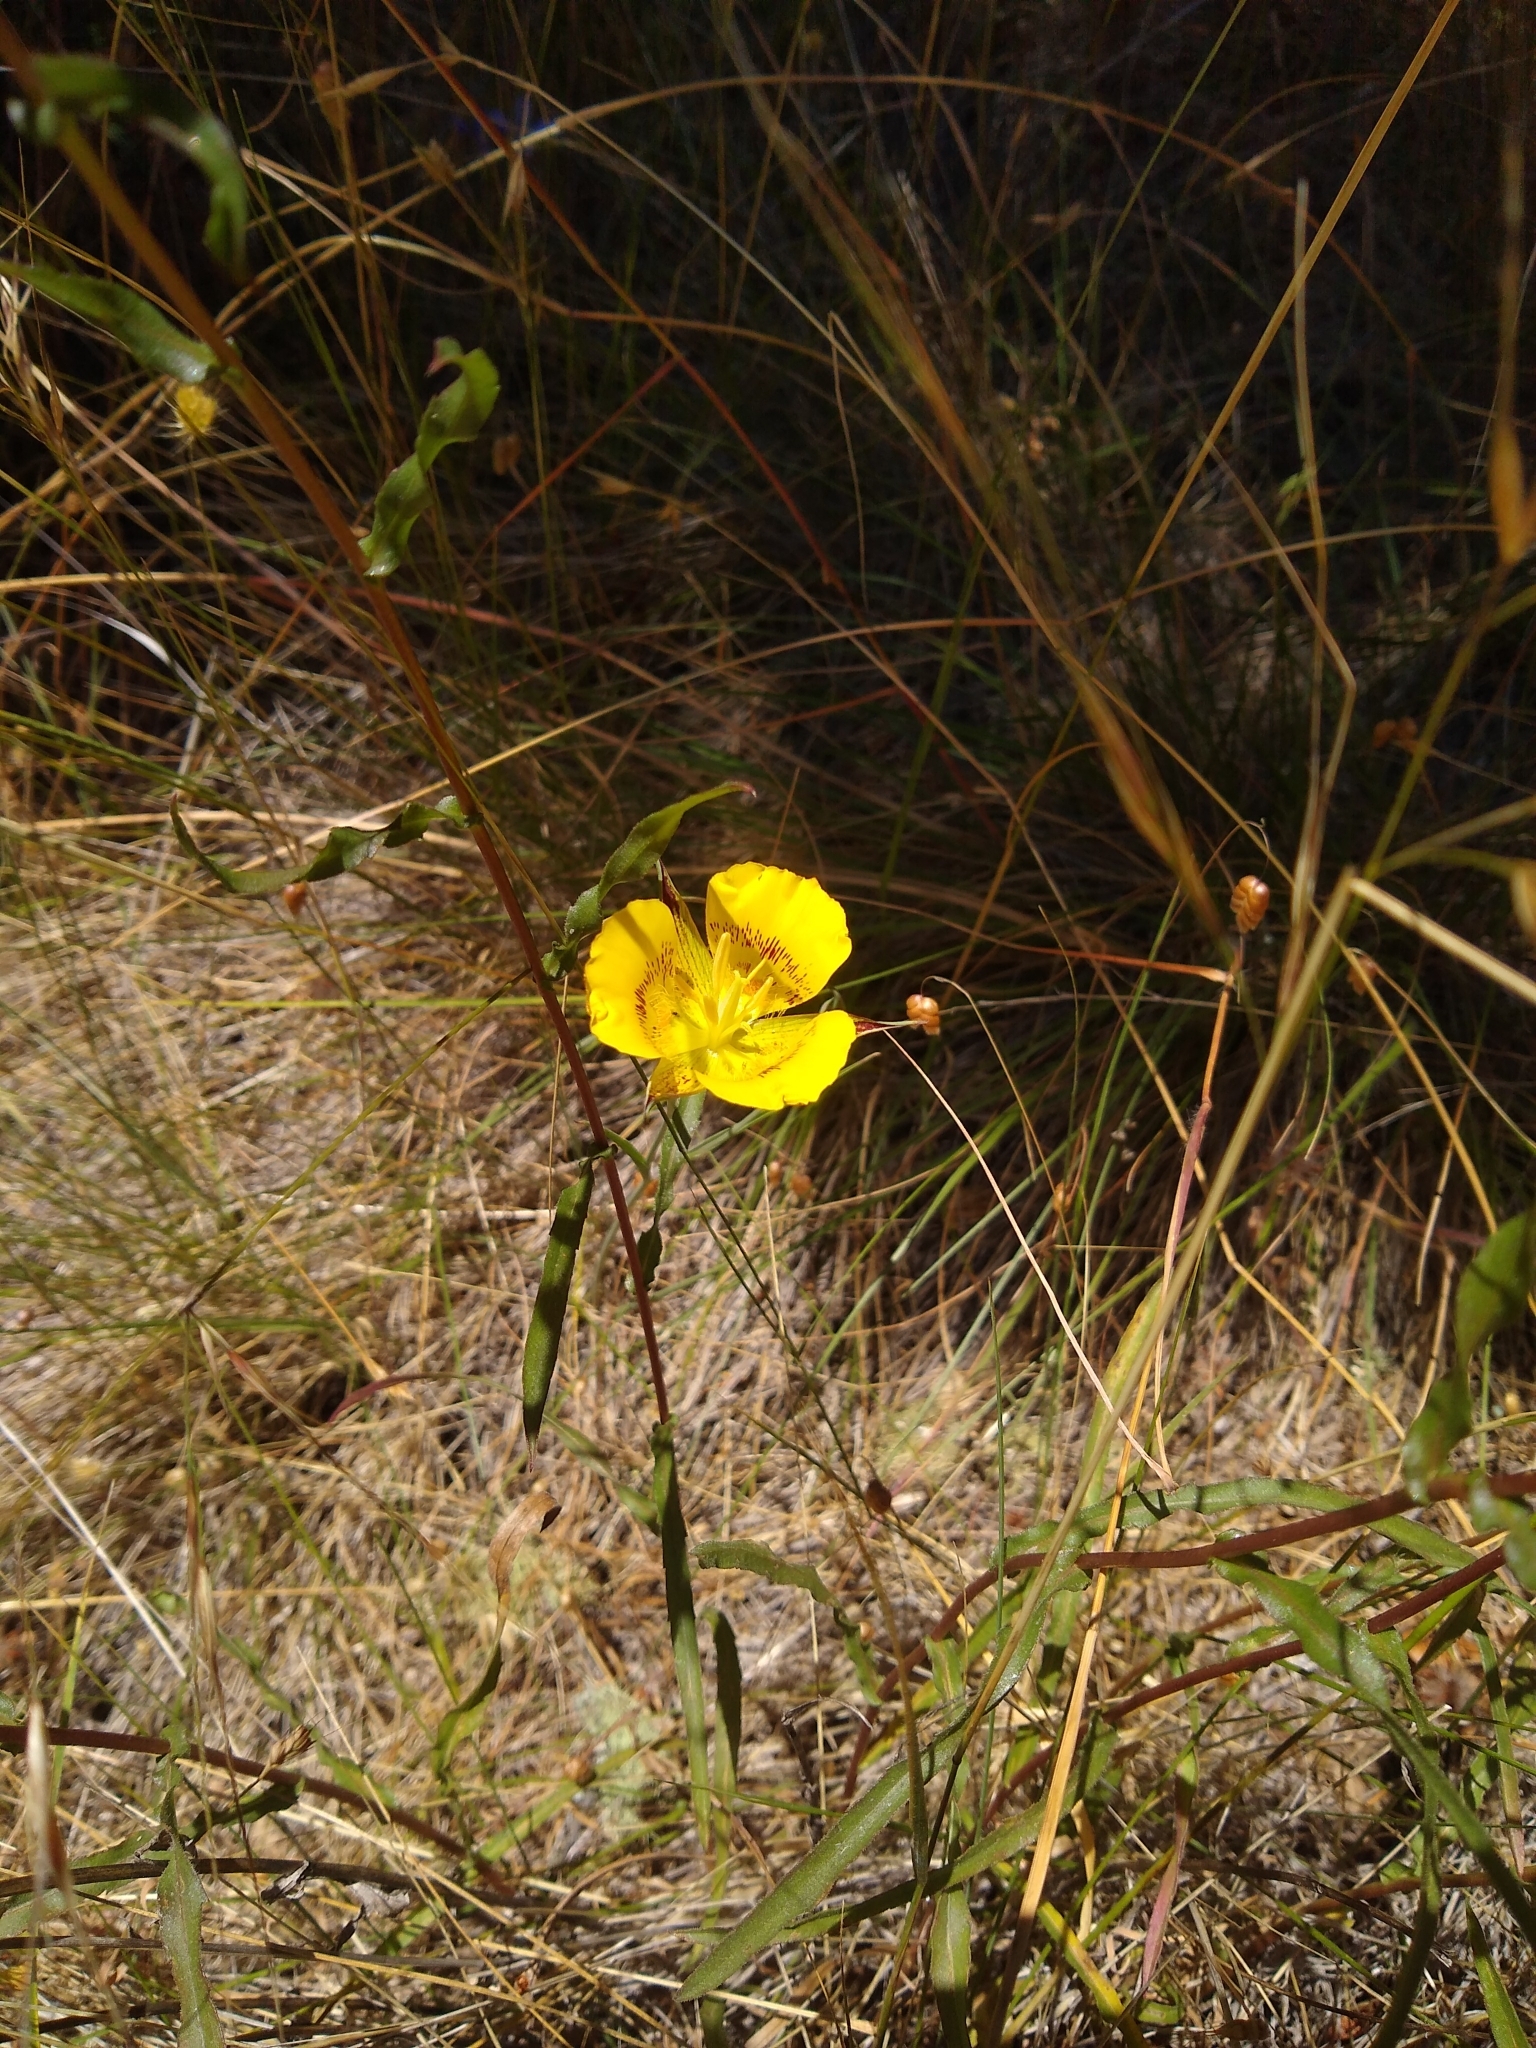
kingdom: Plantae
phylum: Tracheophyta
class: Liliopsida
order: Liliales
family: Liliaceae
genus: Calochortus
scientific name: Calochortus luteus
